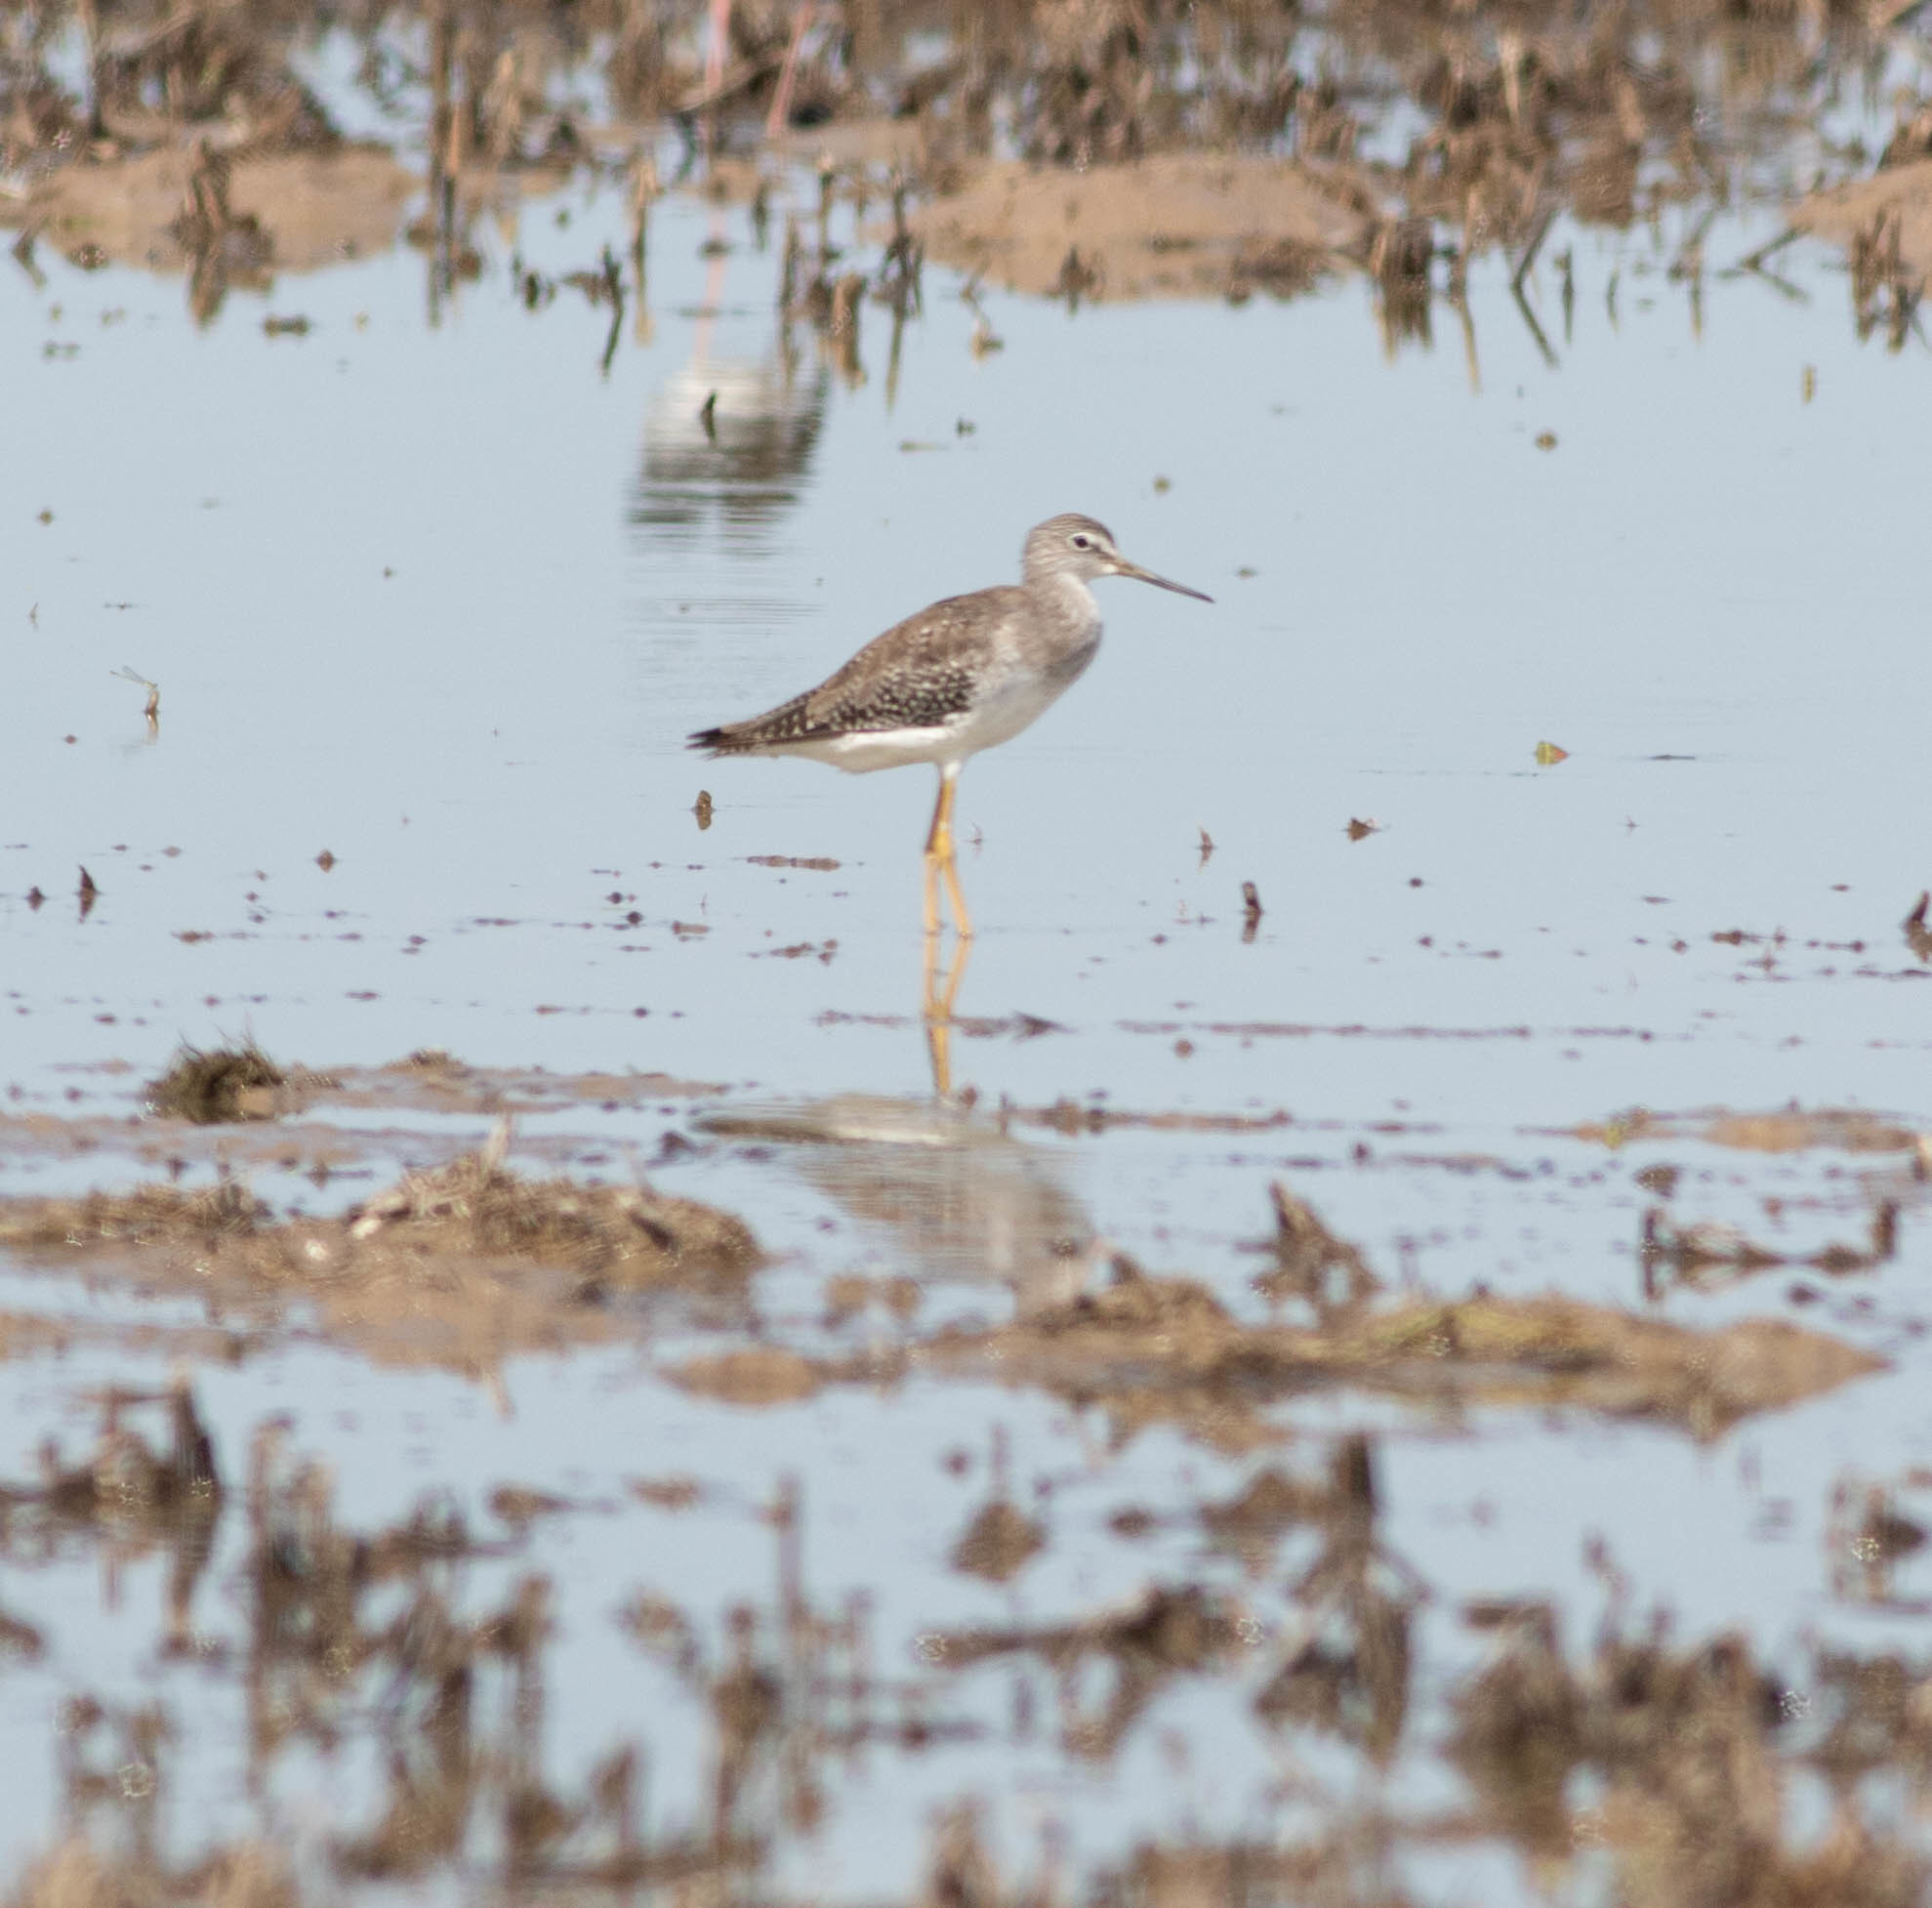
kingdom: Animalia
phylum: Chordata
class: Aves
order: Charadriiformes
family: Scolopacidae
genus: Tringa
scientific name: Tringa melanoleuca
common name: Greater yellowlegs
